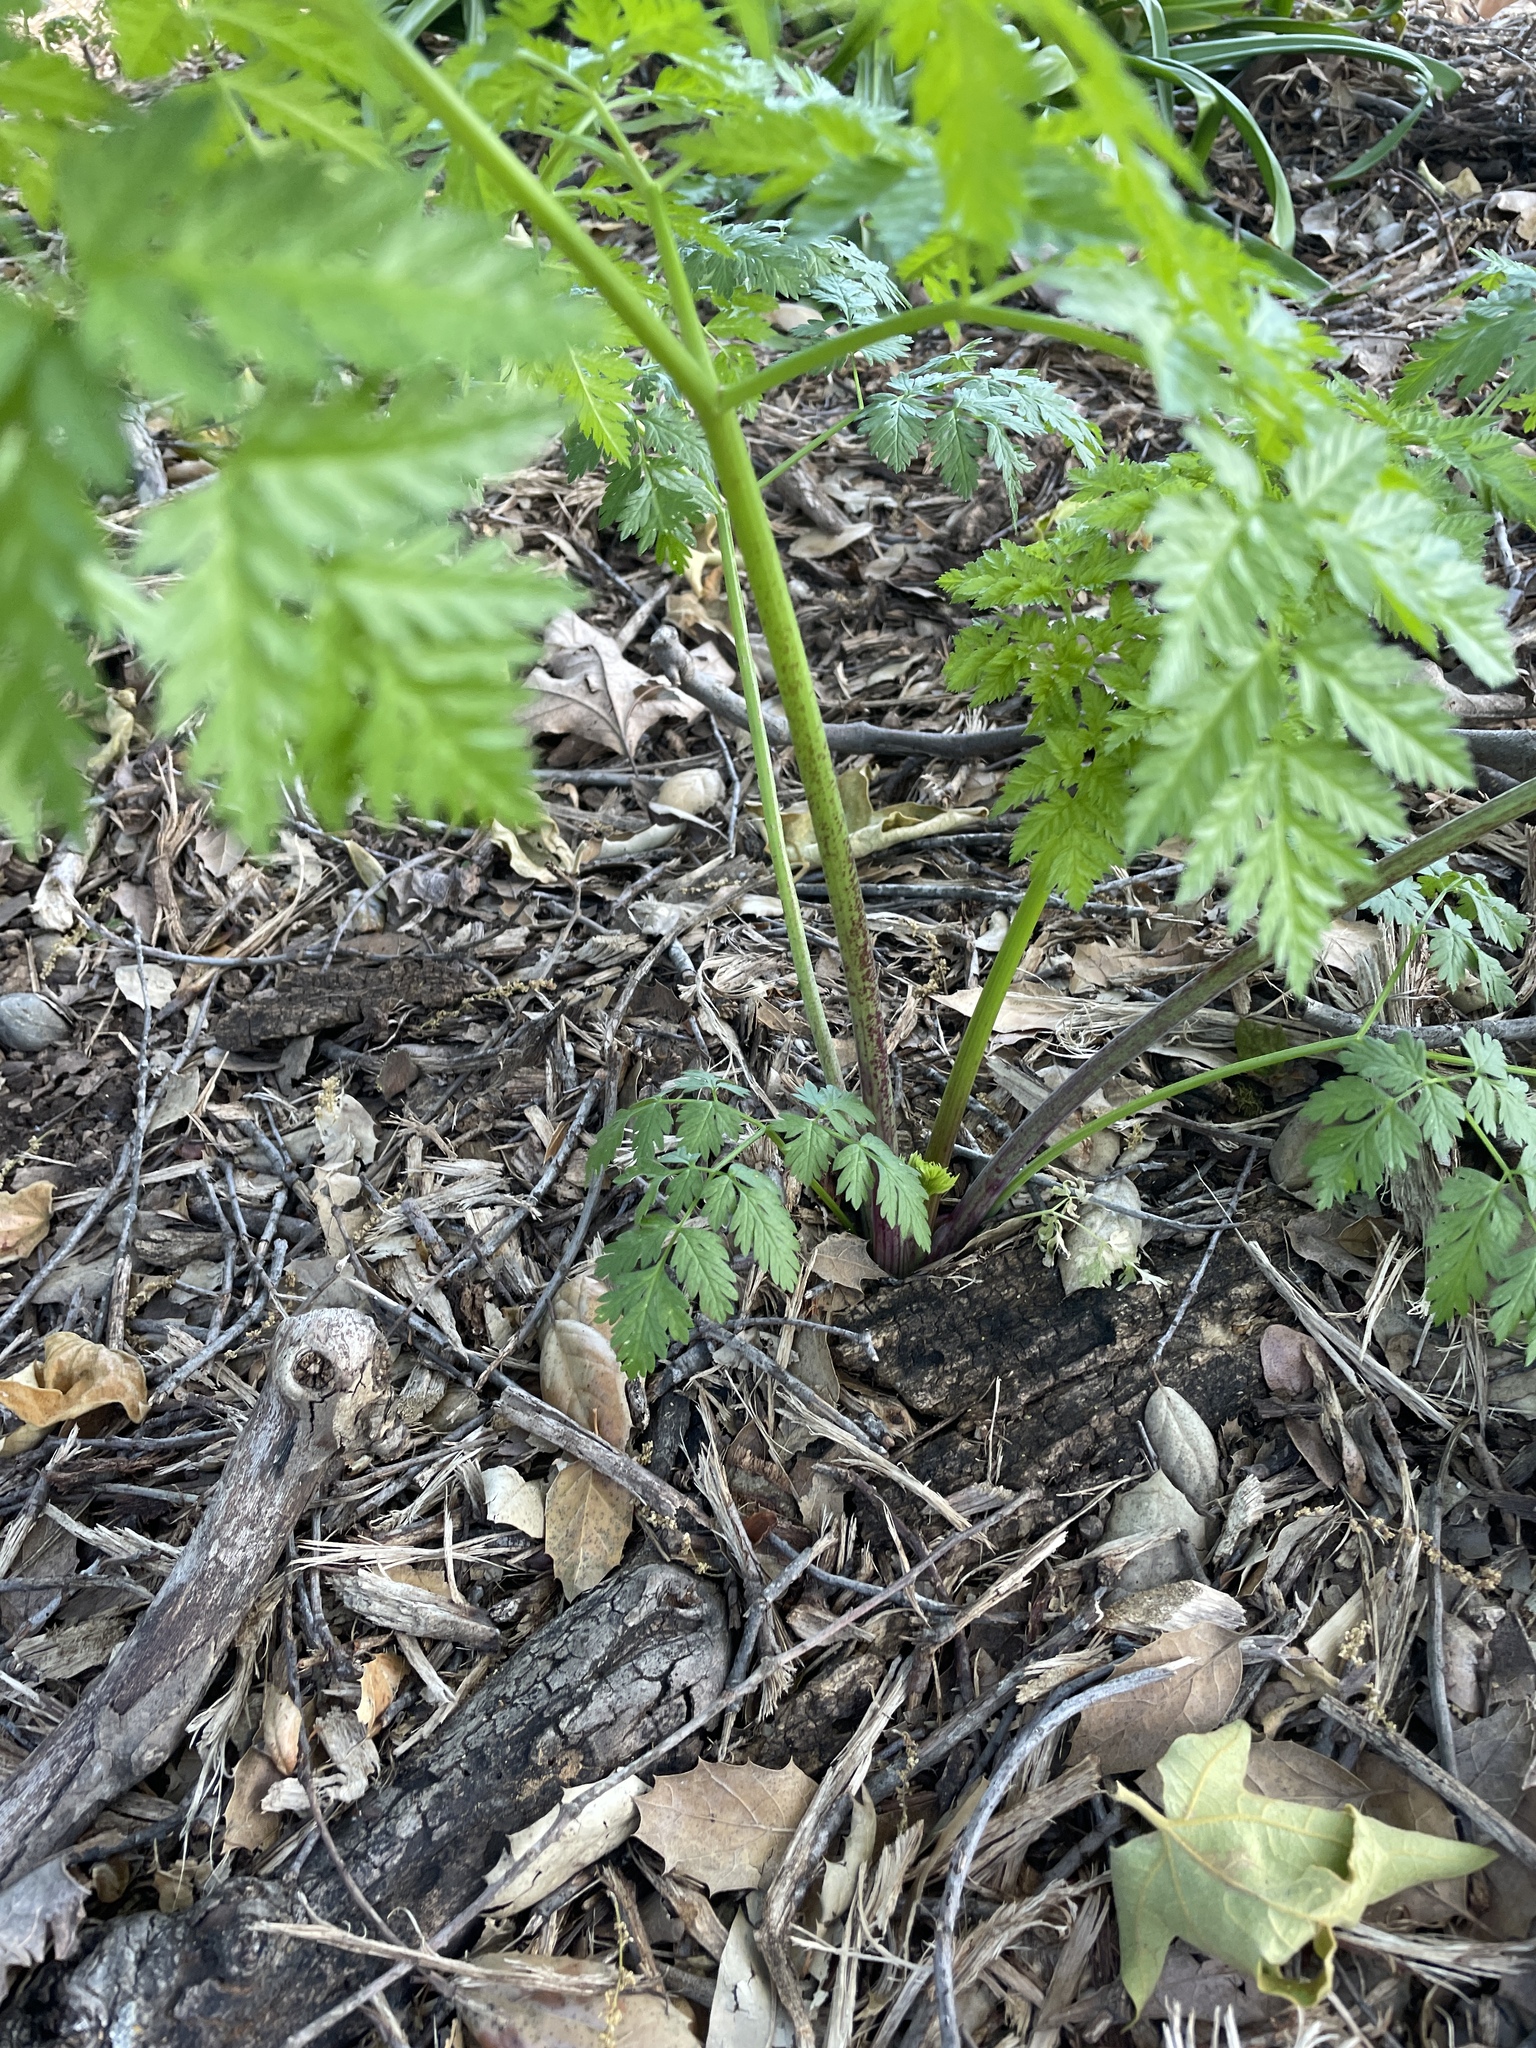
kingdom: Plantae
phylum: Tracheophyta
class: Magnoliopsida
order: Apiales
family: Apiaceae
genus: Conium
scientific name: Conium maculatum
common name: Hemlock
